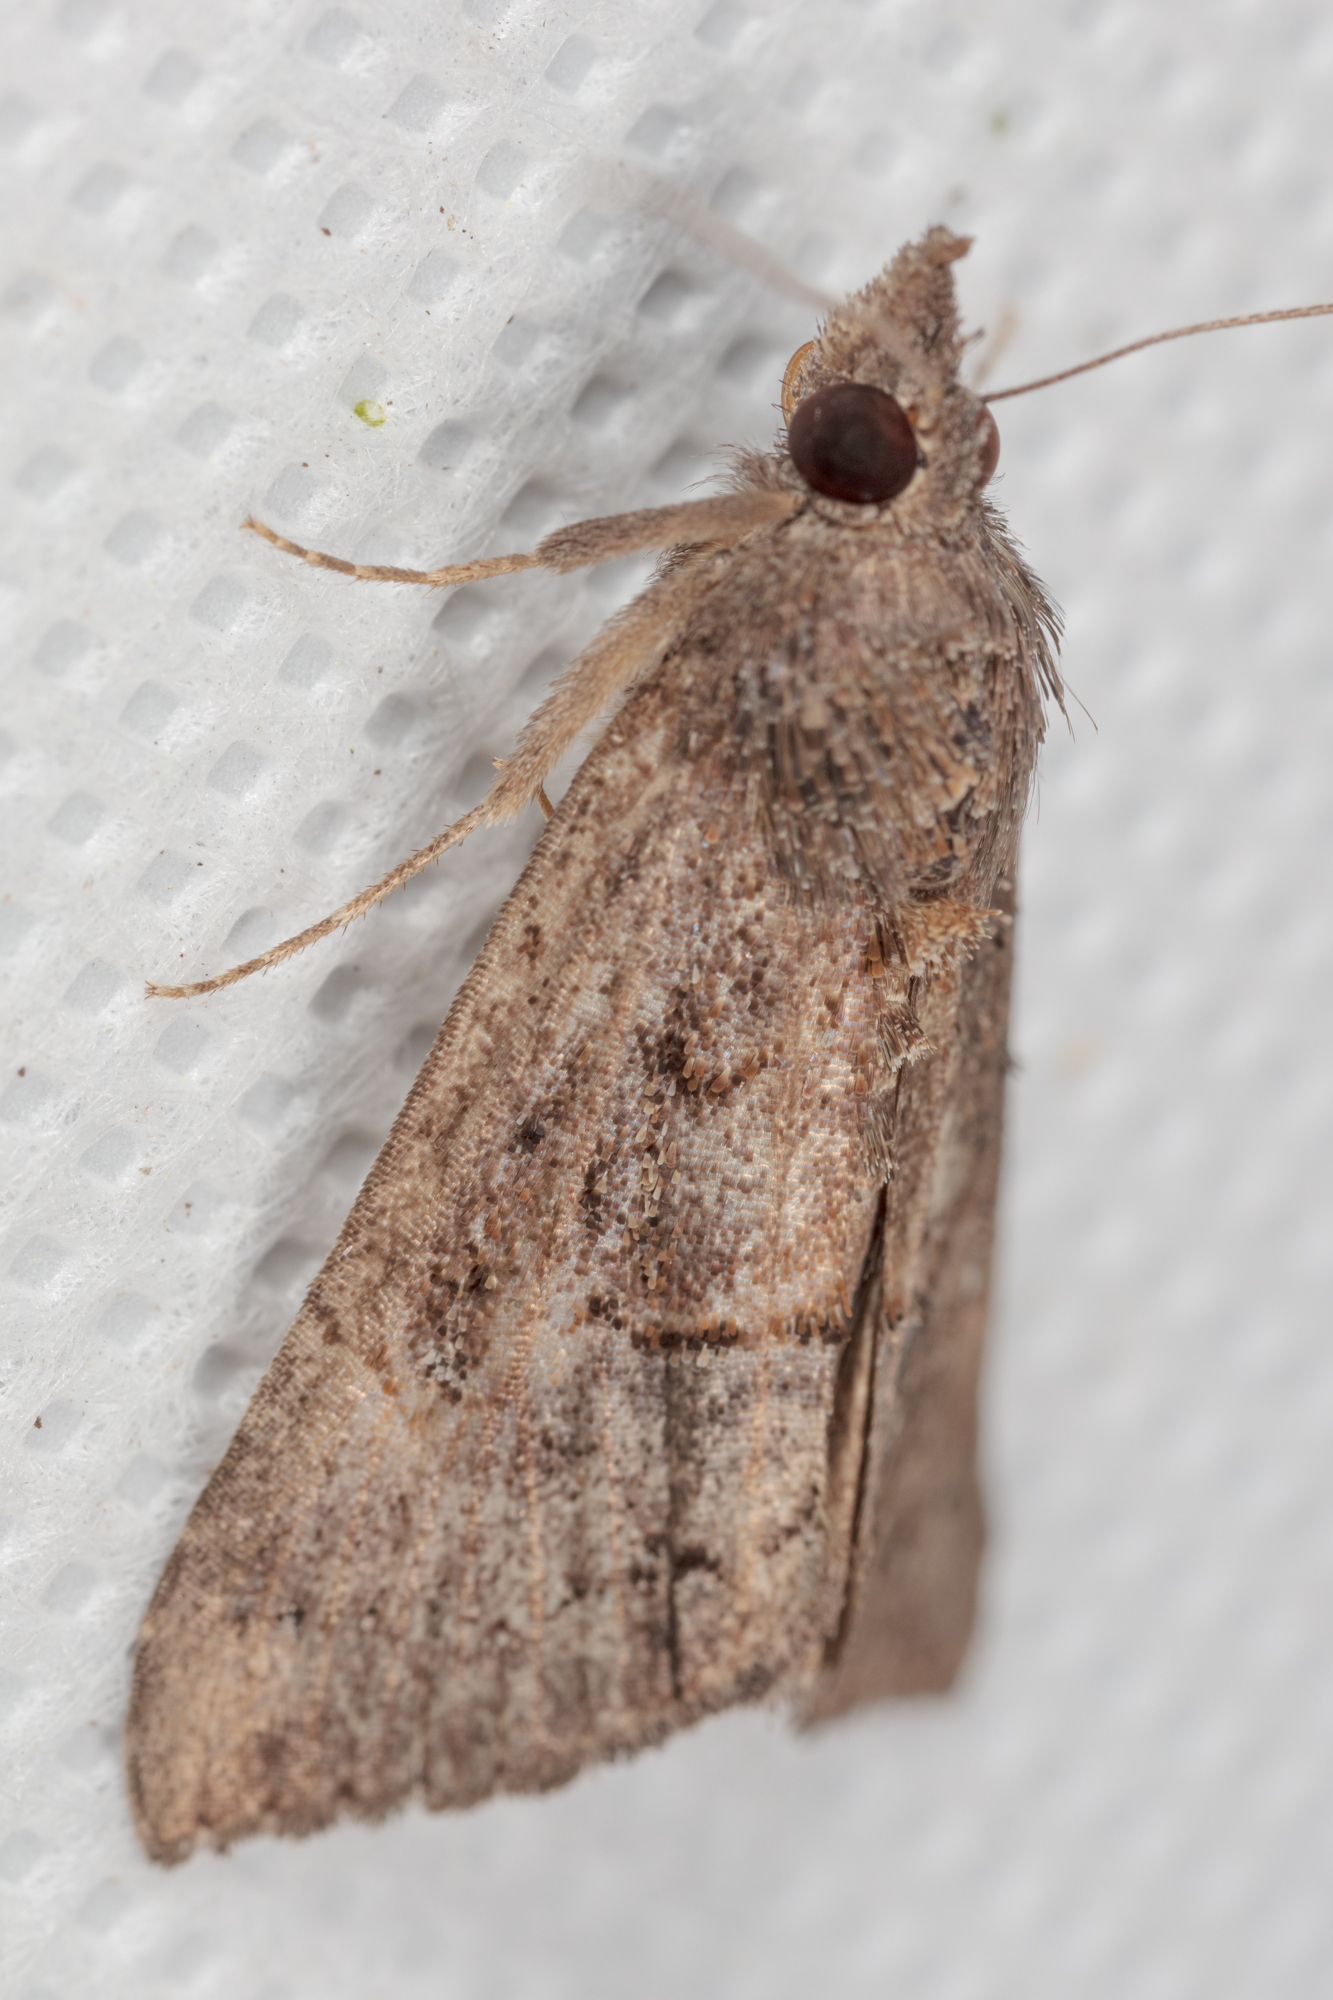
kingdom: Animalia
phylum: Arthropoda
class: Insecta
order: Lepidoptera
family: Erebidae
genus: Hypena
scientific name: Hypena scabra
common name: Green cloverworm
